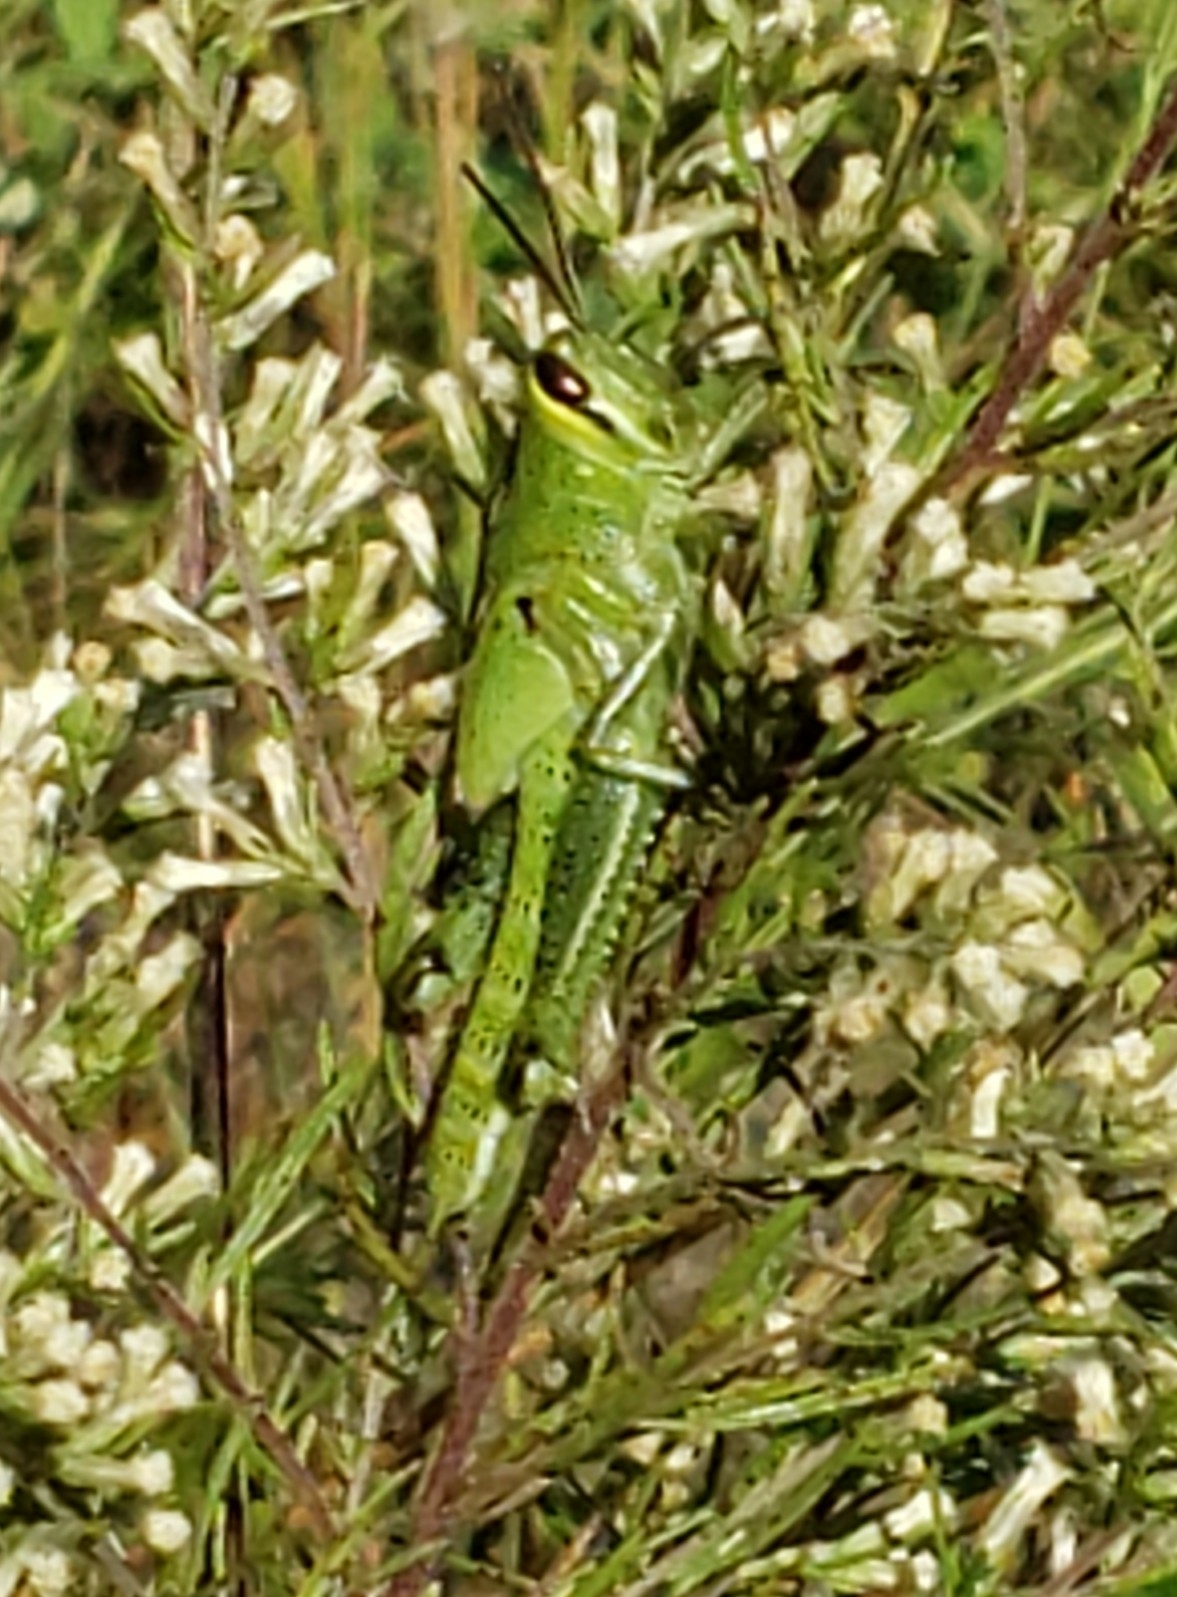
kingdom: Animalia
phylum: Arthropoda
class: Insecta
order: Orthoptera
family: Acrididae
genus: Schistocerca
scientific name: Schistocerca americana
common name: American bird locust
